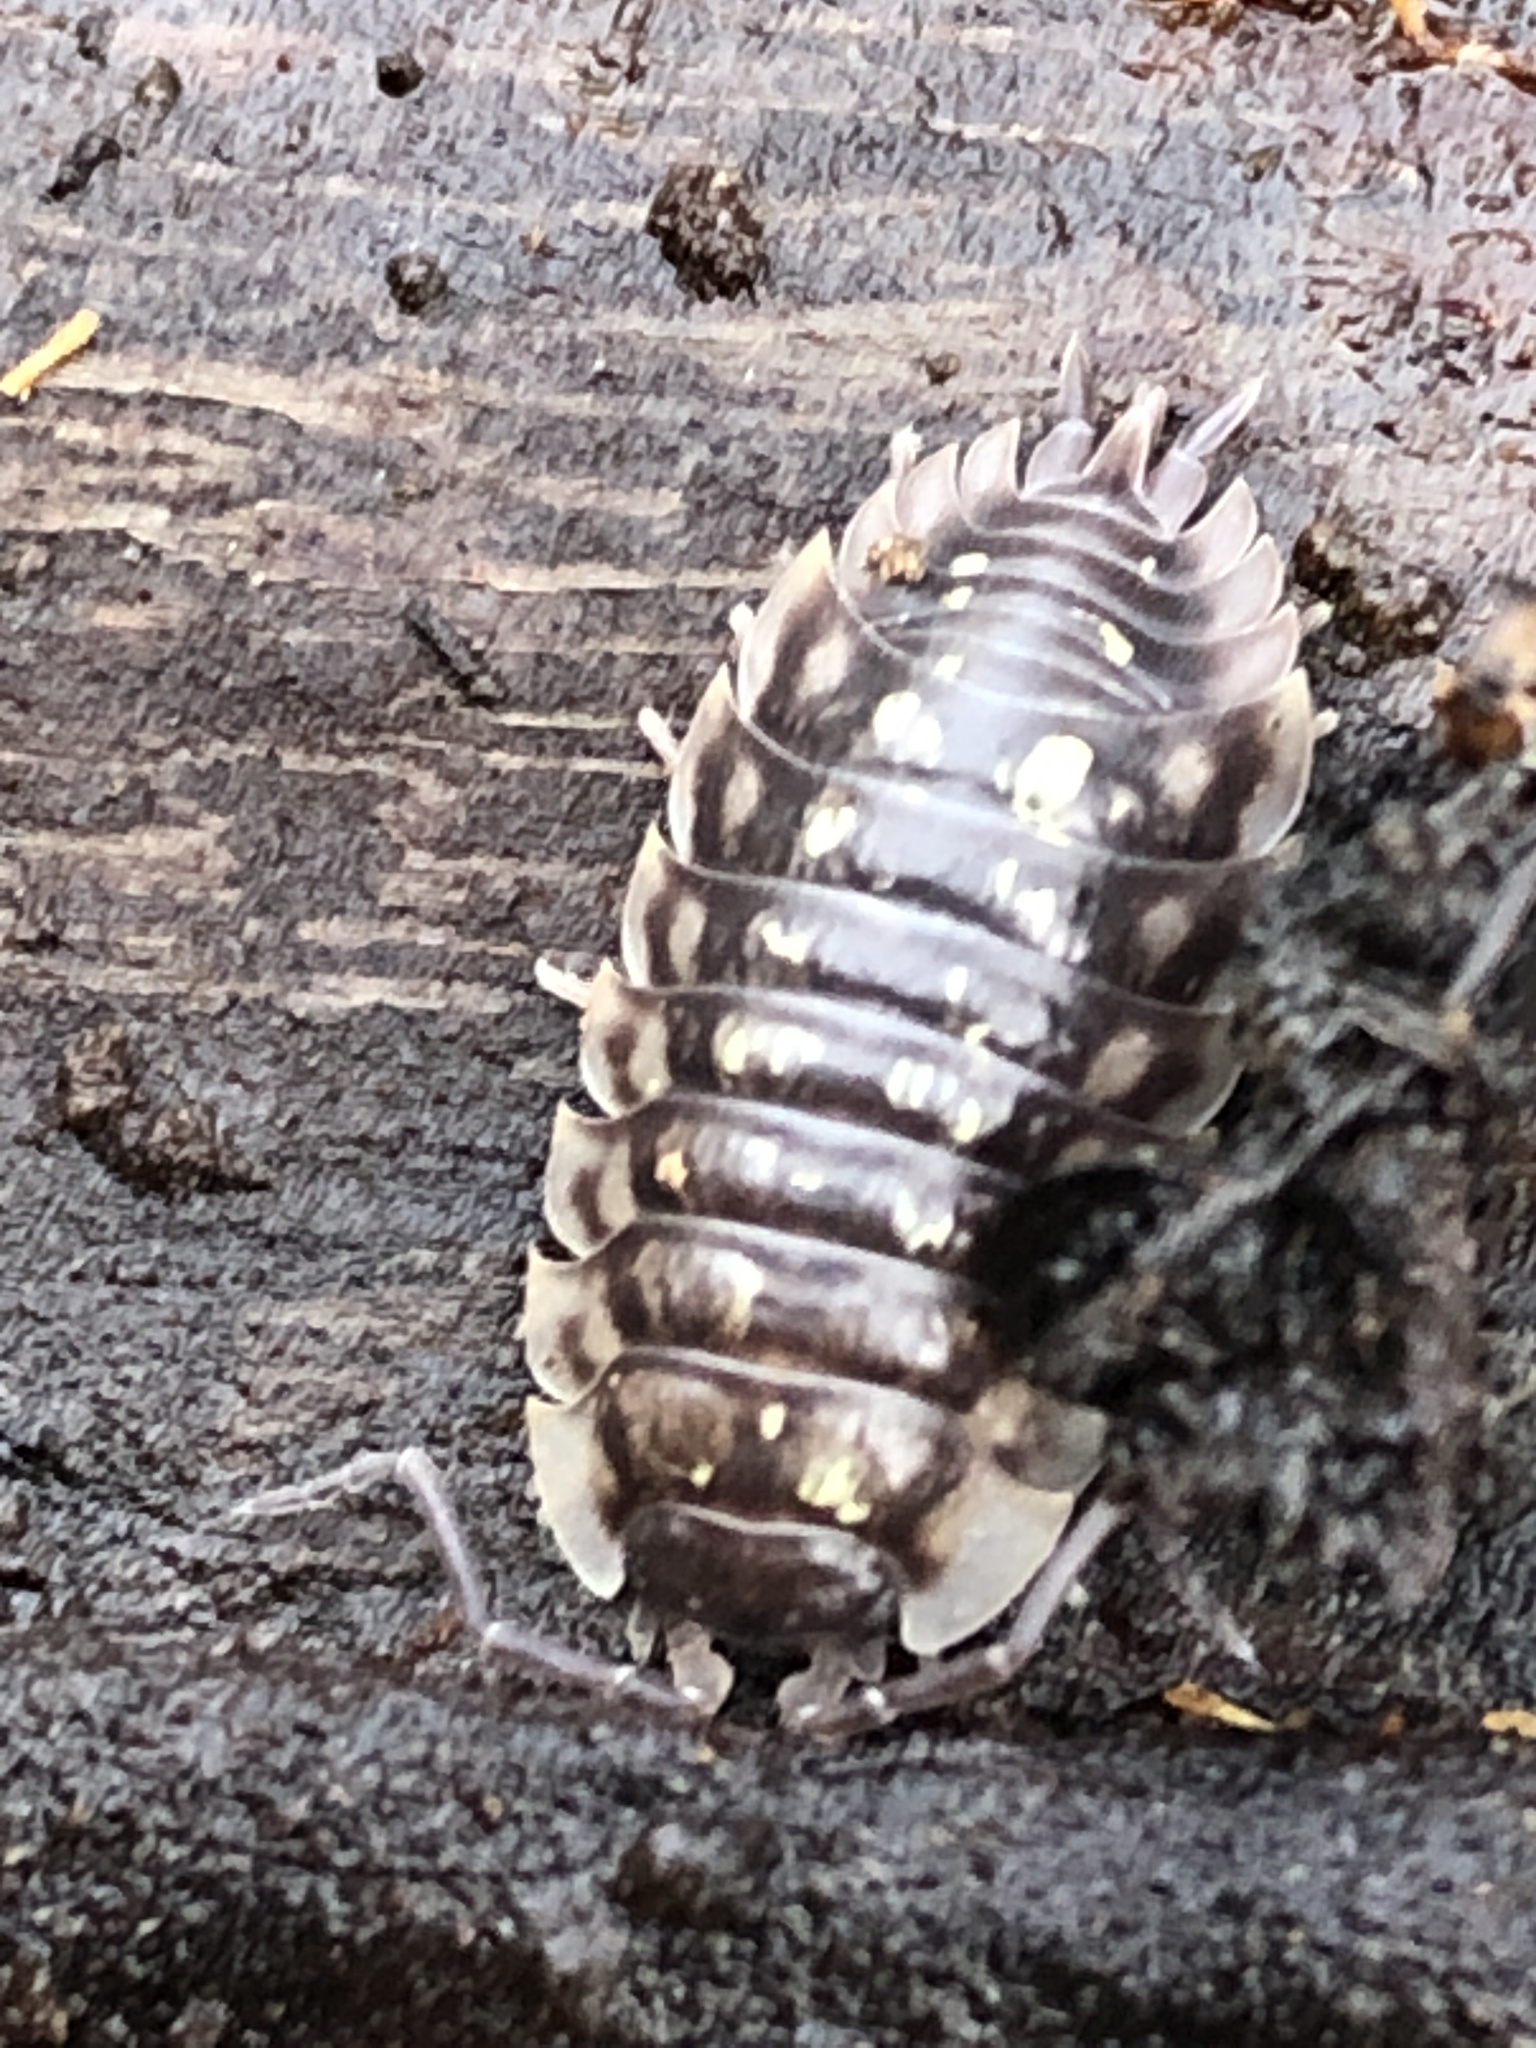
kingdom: Animalia
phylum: Arthropoda
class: Malacostraca
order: Isopoda
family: Oniscidae
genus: Oniscus
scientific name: Oniscus asellus
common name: Common shiny woodlouse
